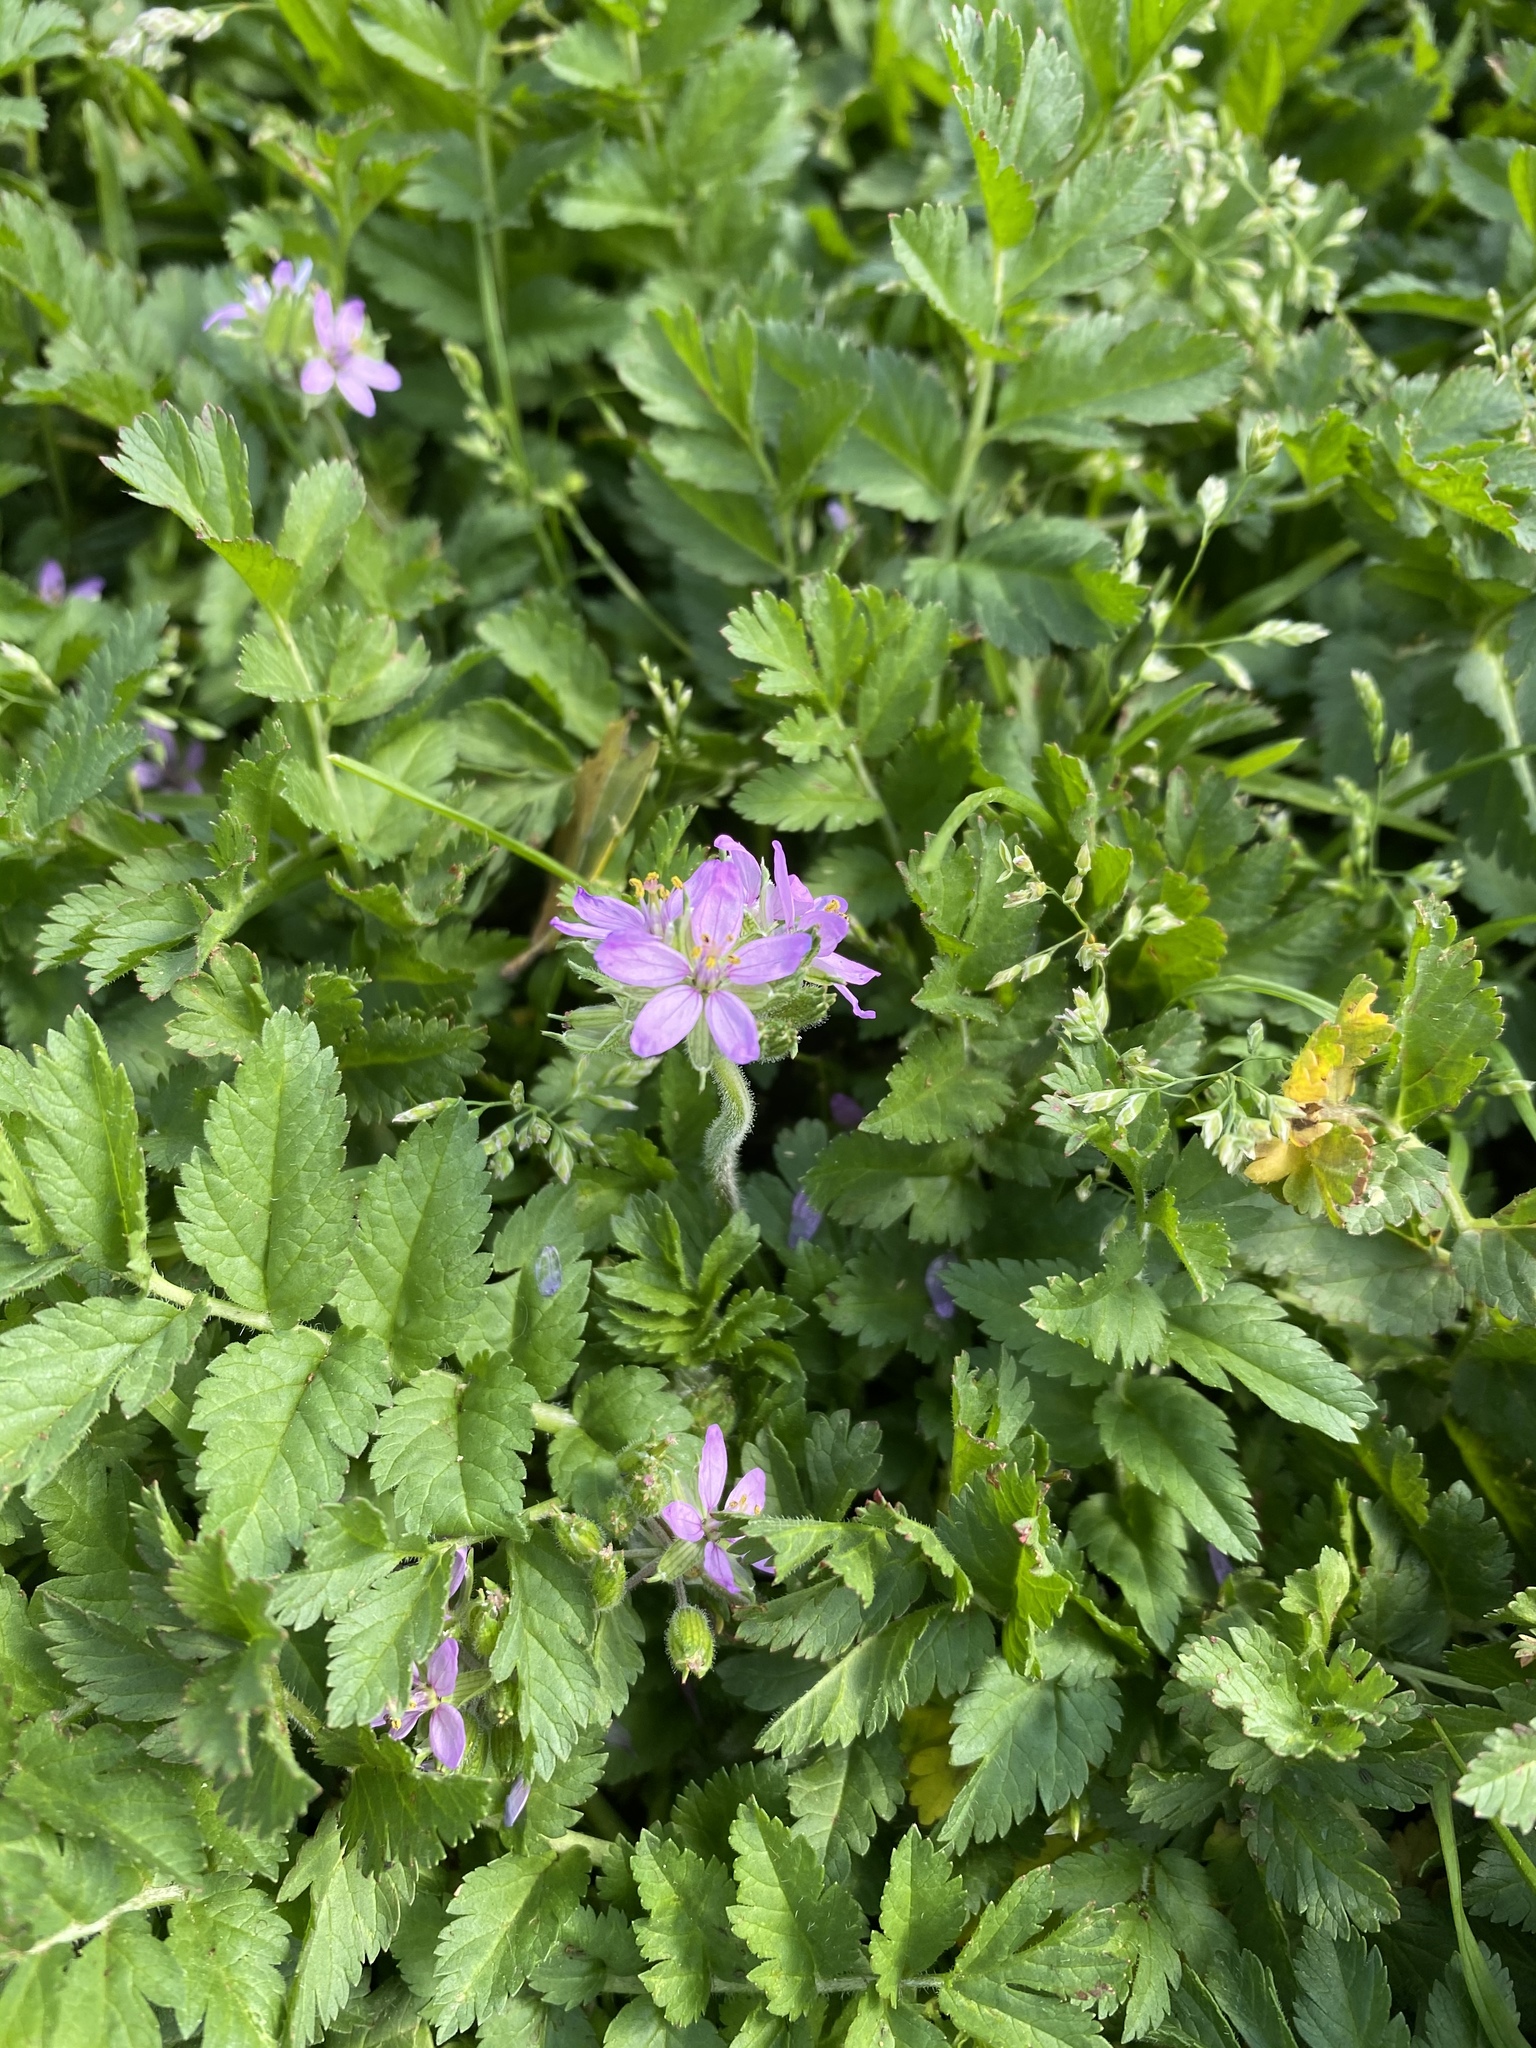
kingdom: Plantae
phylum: Tracheophyta
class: Magnoliopsida
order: Geraniales
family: Geraniaceae
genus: Erodium
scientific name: Erodium moschatum
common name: Musk stork's-bill
